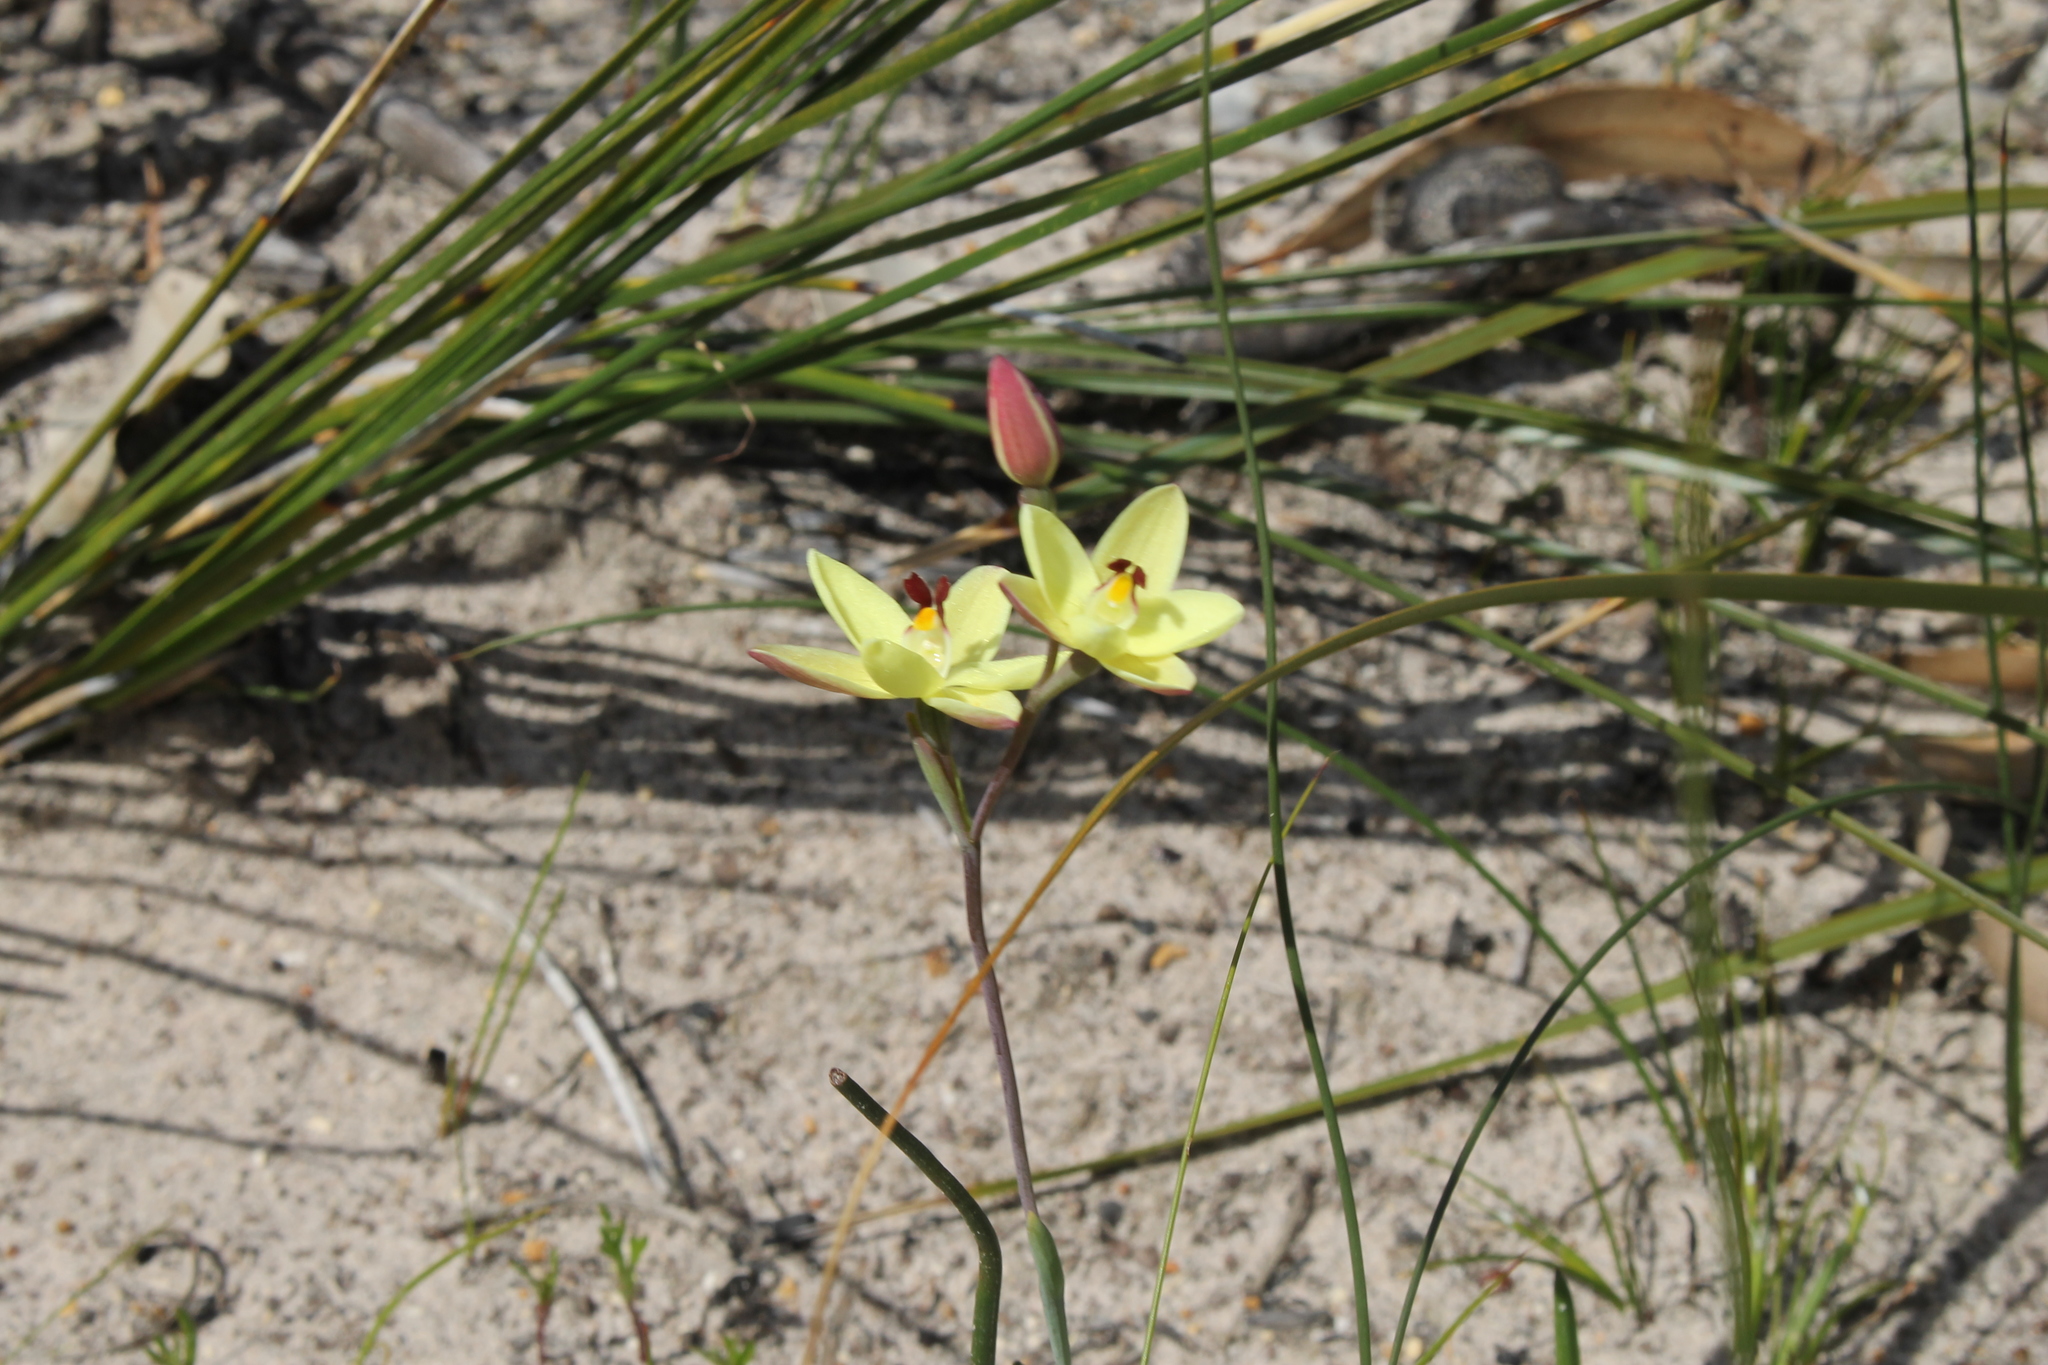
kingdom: Plantae
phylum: Tracheophyta
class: Liliopsida
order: Asparagales
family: Orchidaceae
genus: Thelymitra
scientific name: Thelymitra antennifera
